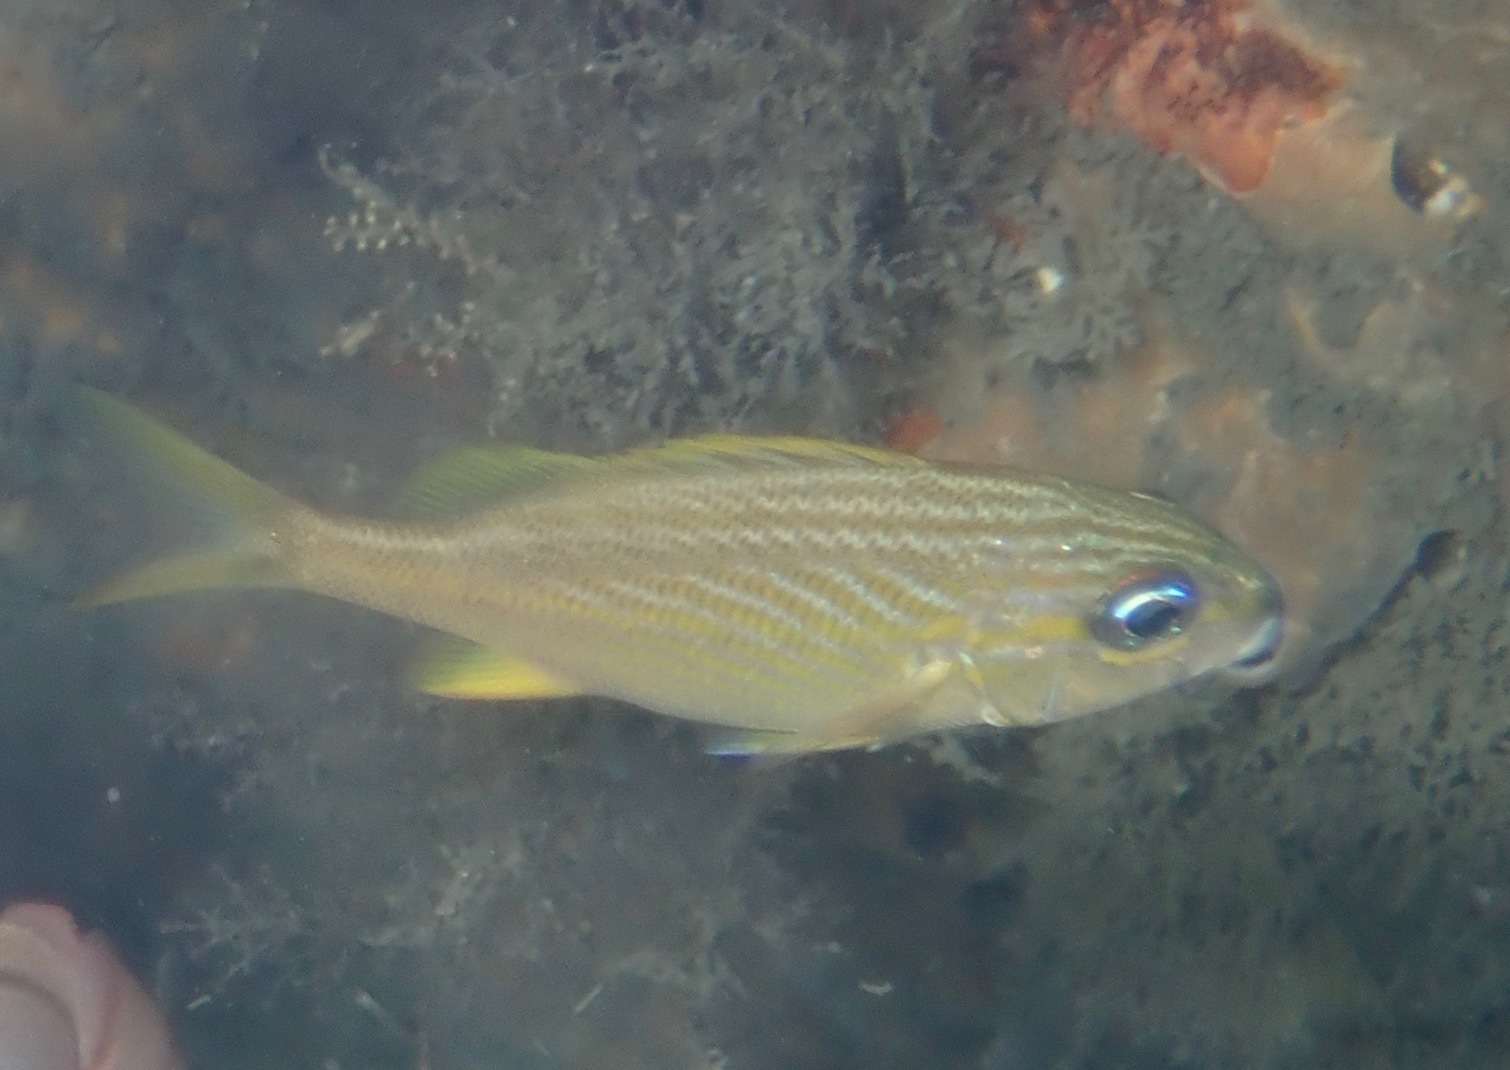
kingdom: Animalia
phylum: Chordata
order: Perciformes
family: Haemulidae
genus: Haemulon
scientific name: Haemulon flavolineatum
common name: French grunt
